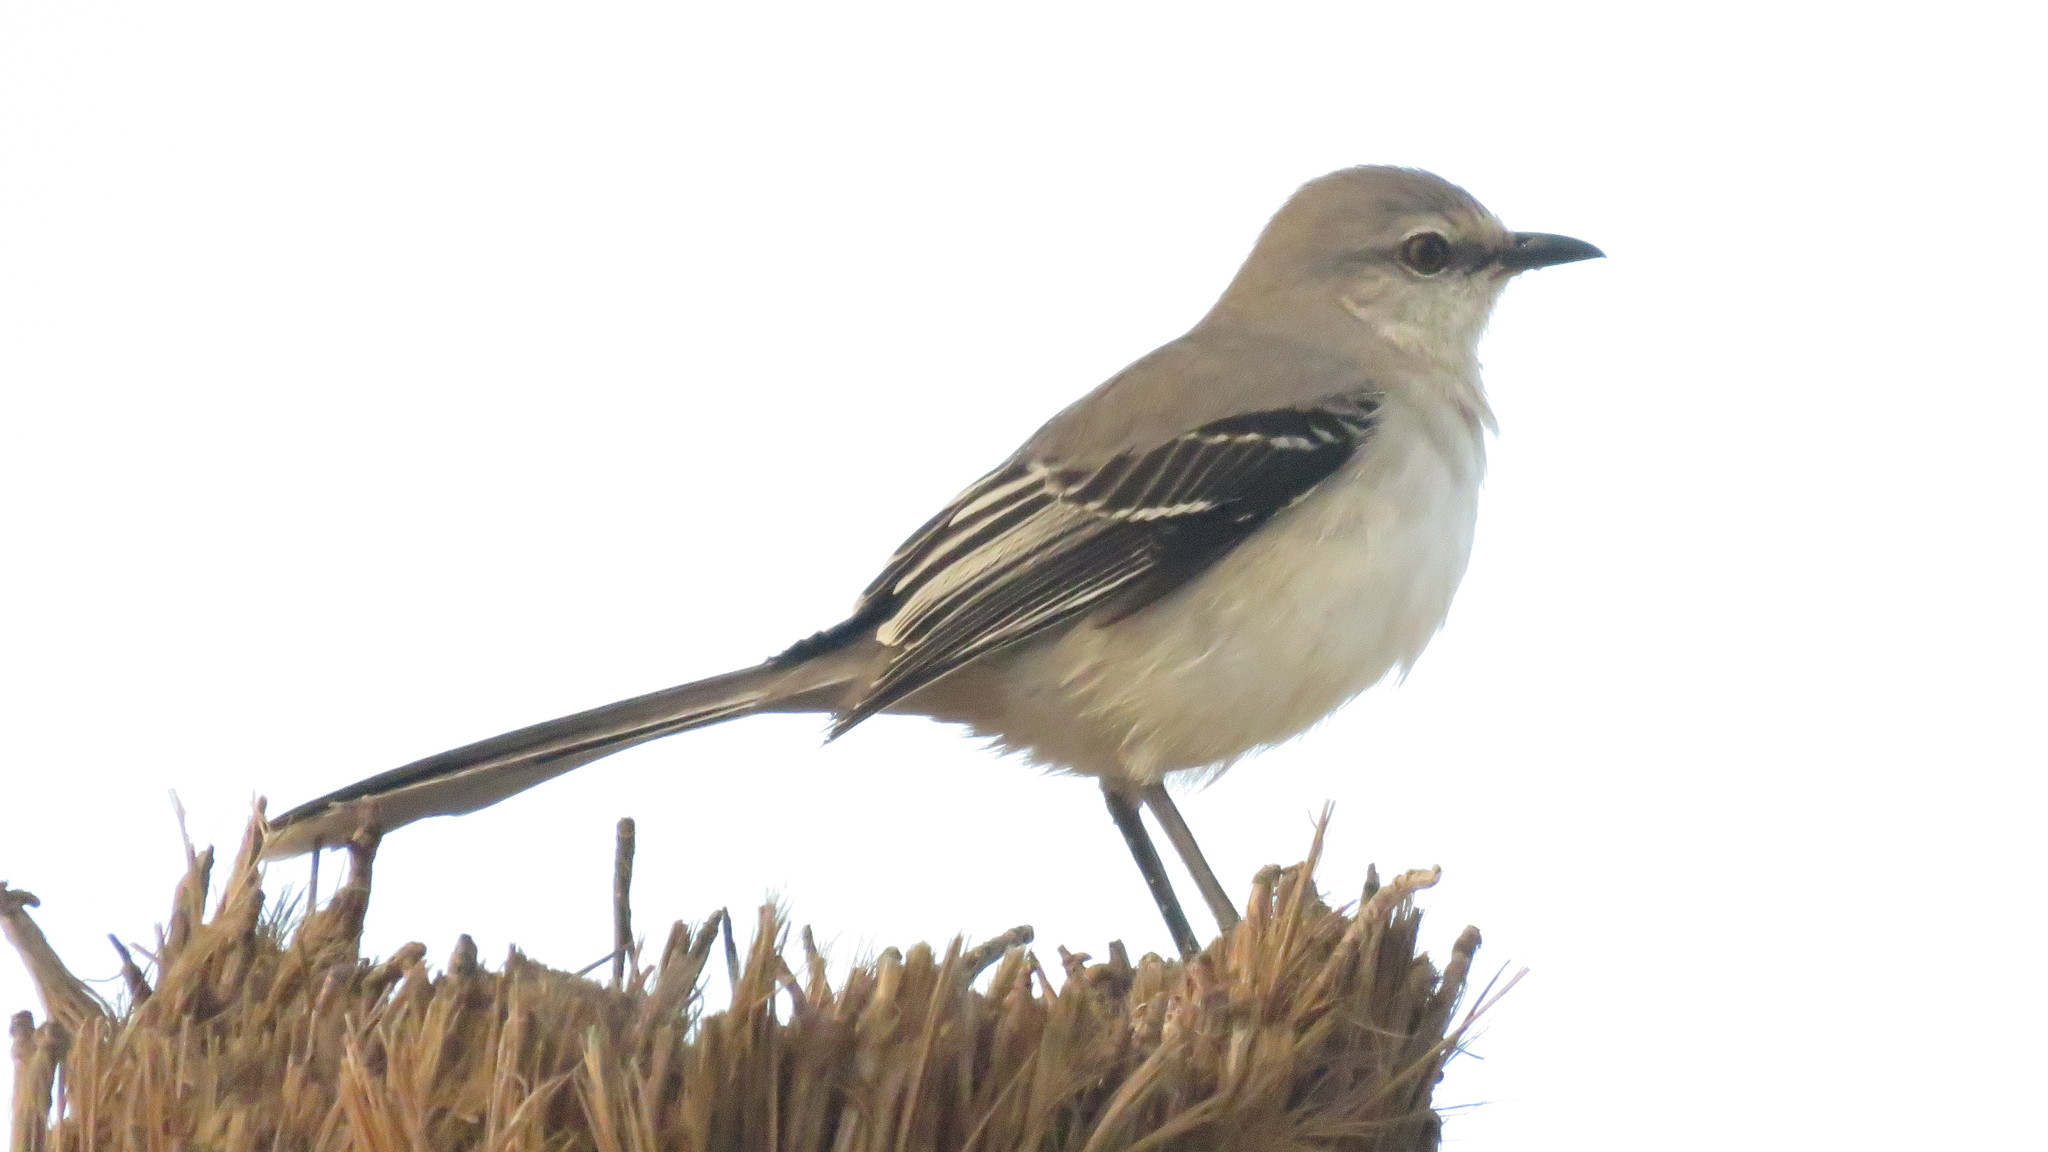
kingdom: Animalia
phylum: Chordata
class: Aves
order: Passeriformes
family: Mimidae
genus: Mimus
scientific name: Mimus gilvus
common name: Tropical mockingbird
